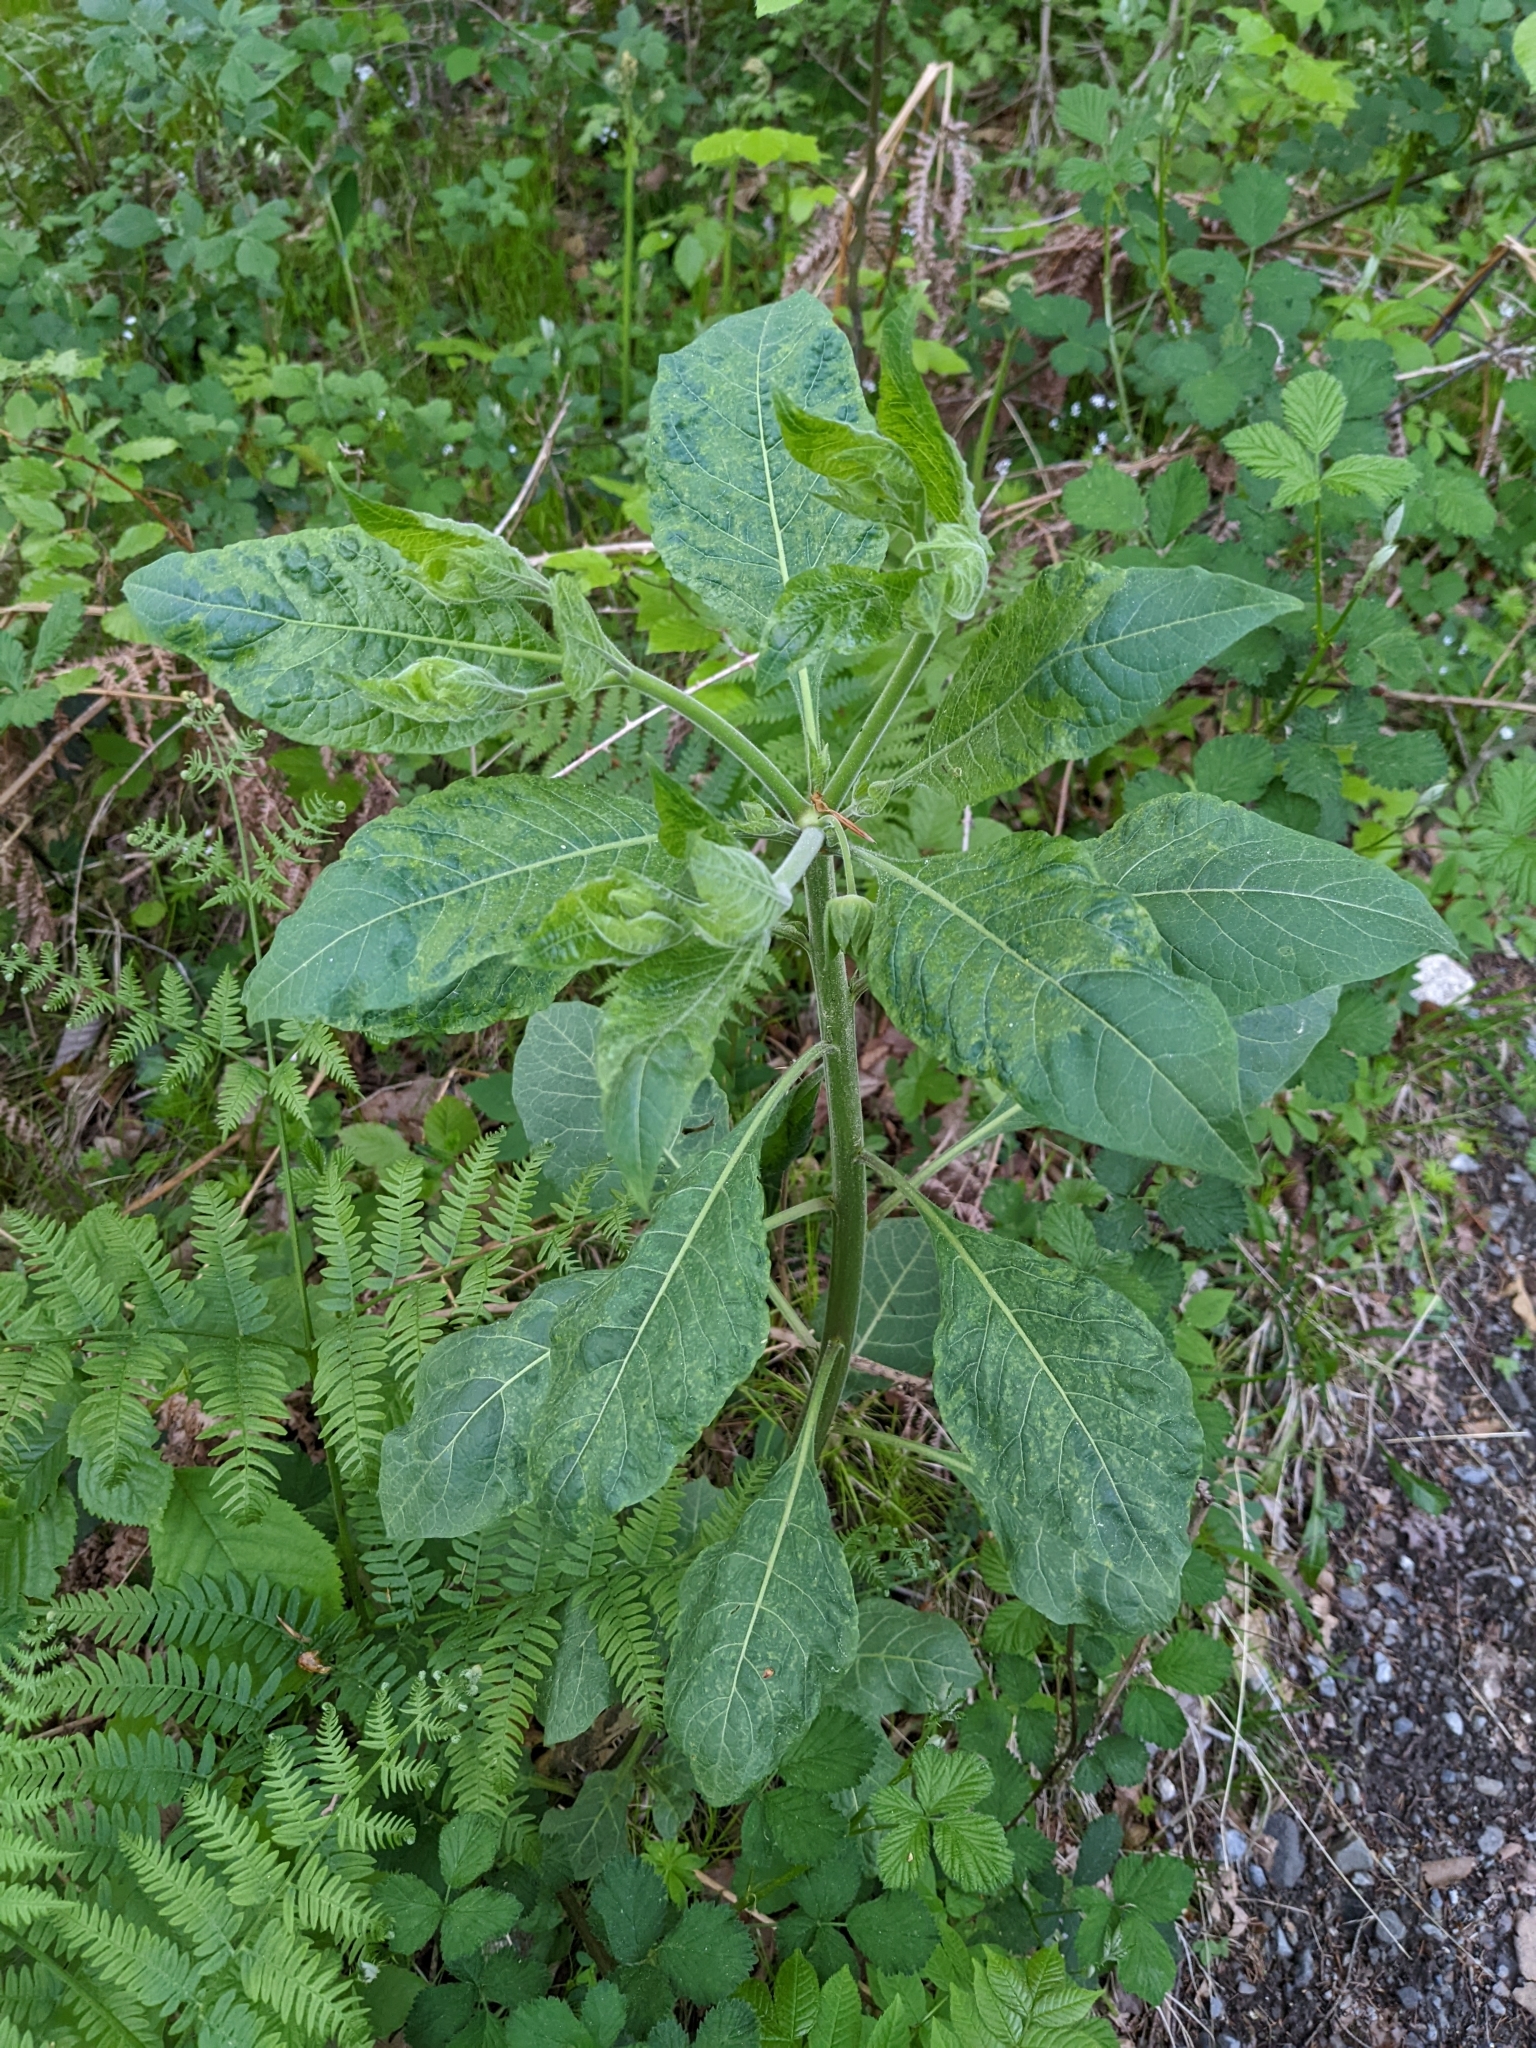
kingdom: Plantae
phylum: Tracheophyta
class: Magnoliopsida
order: Solanales
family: Solanaceae
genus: Atropa
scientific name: Atropa belladonna
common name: Deadly nightshade
